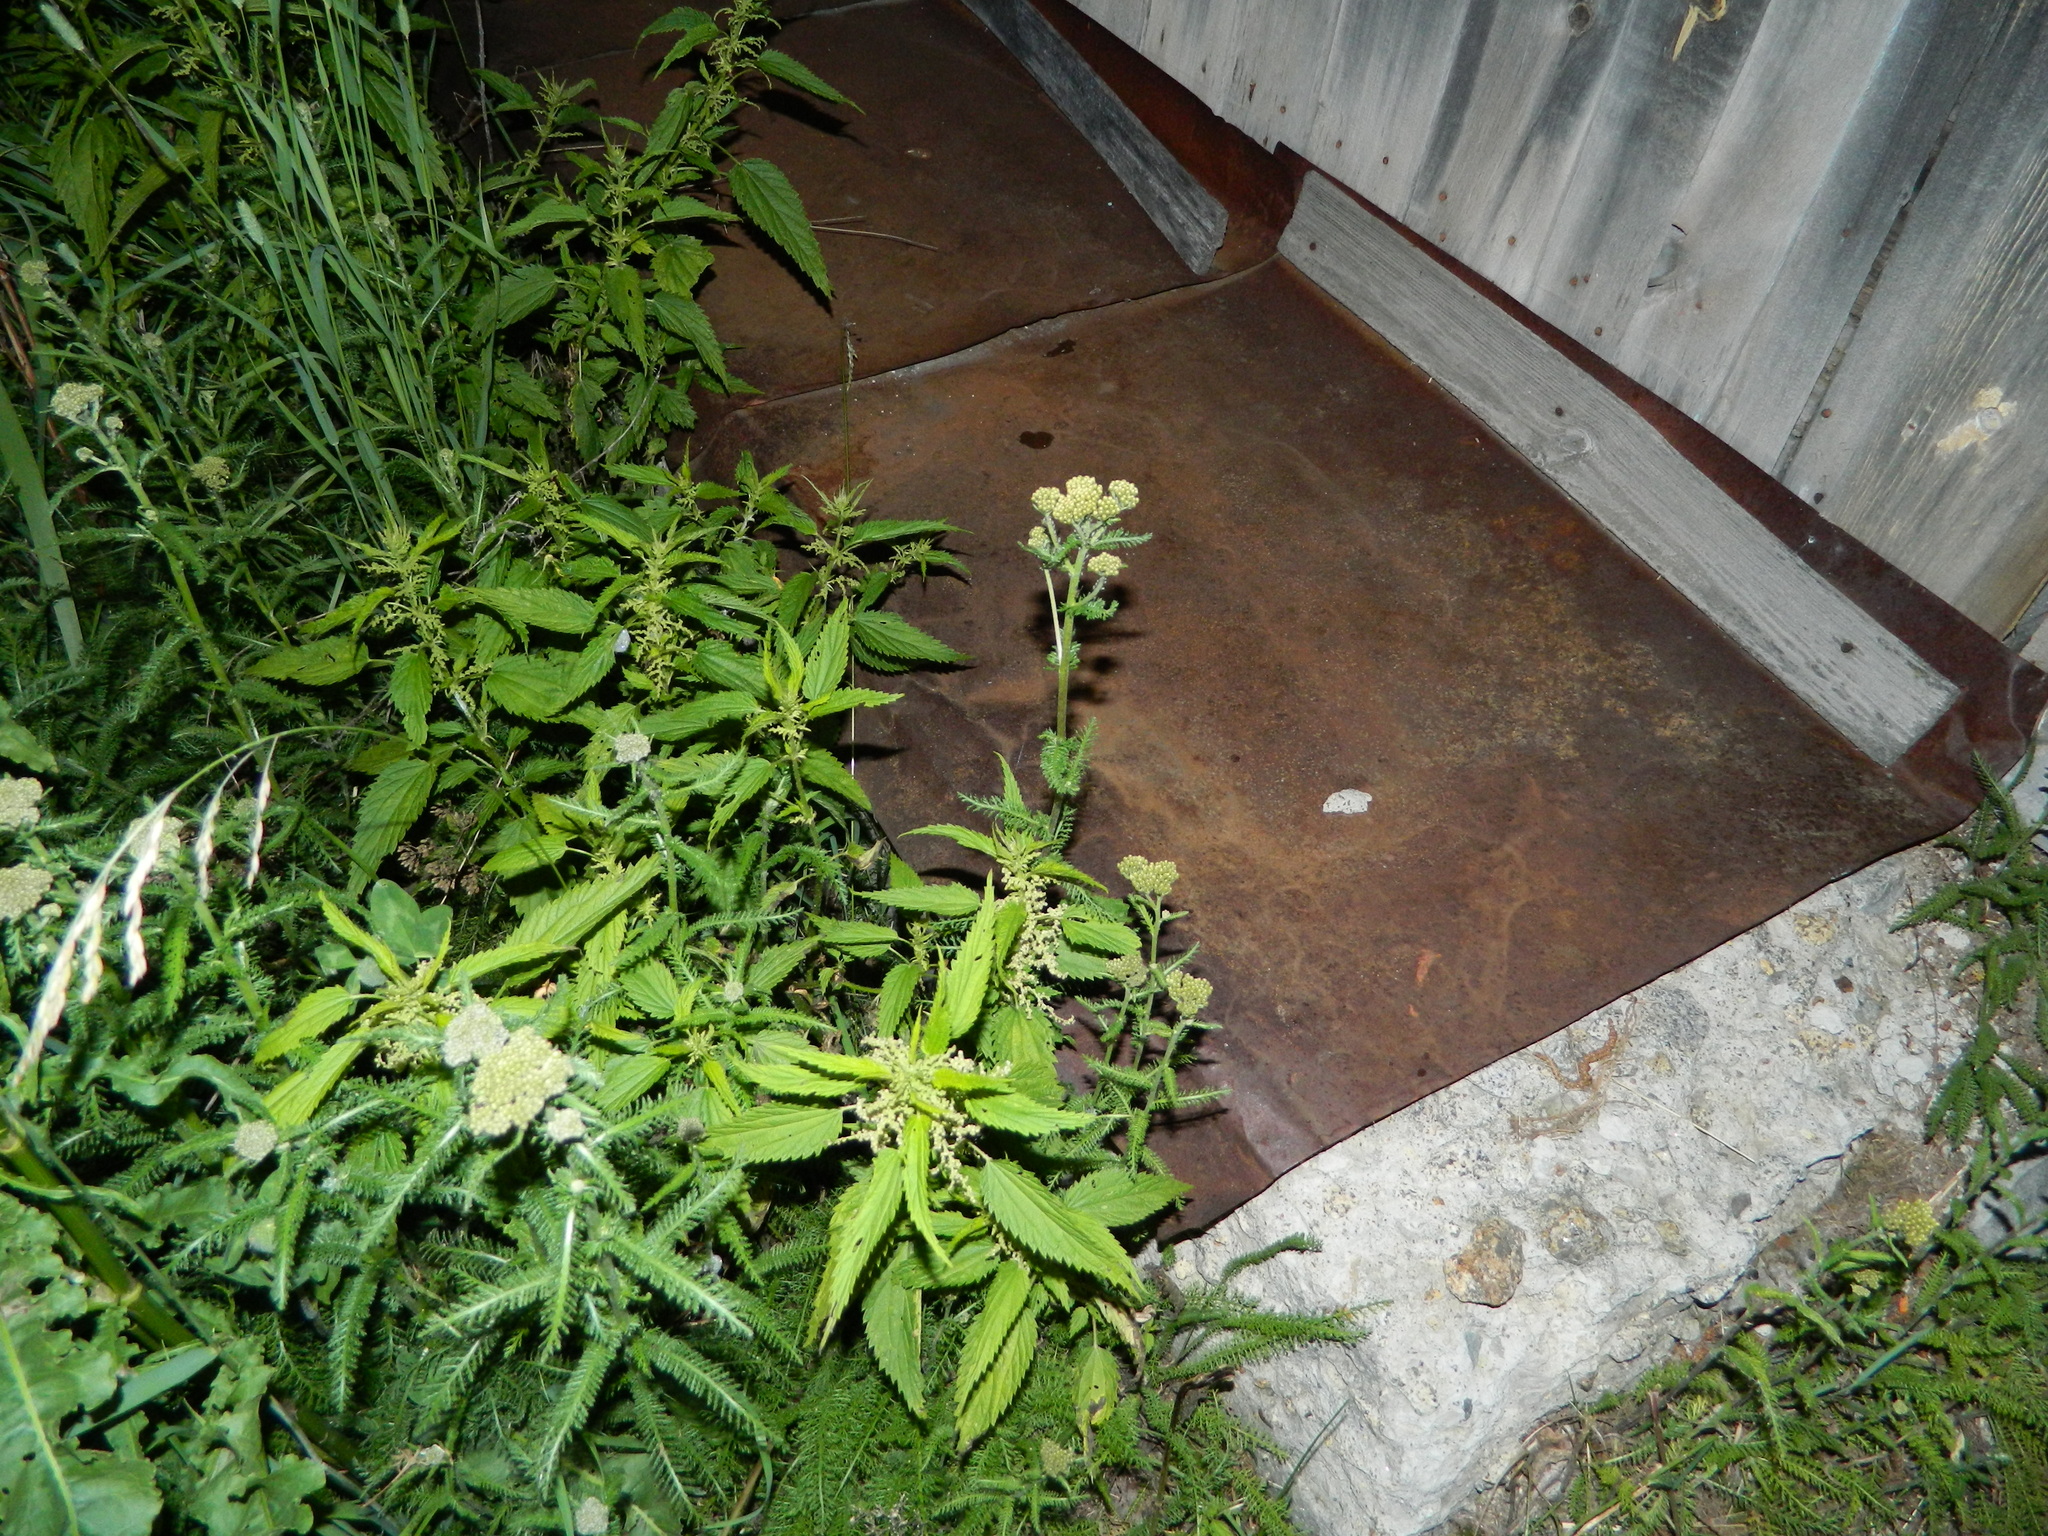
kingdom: Plantae
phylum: Tracheophyta
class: Magnoliopsida
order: Asterales
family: Asteraceae
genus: Achillea
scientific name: Achillea millefolium
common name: Yarrow
